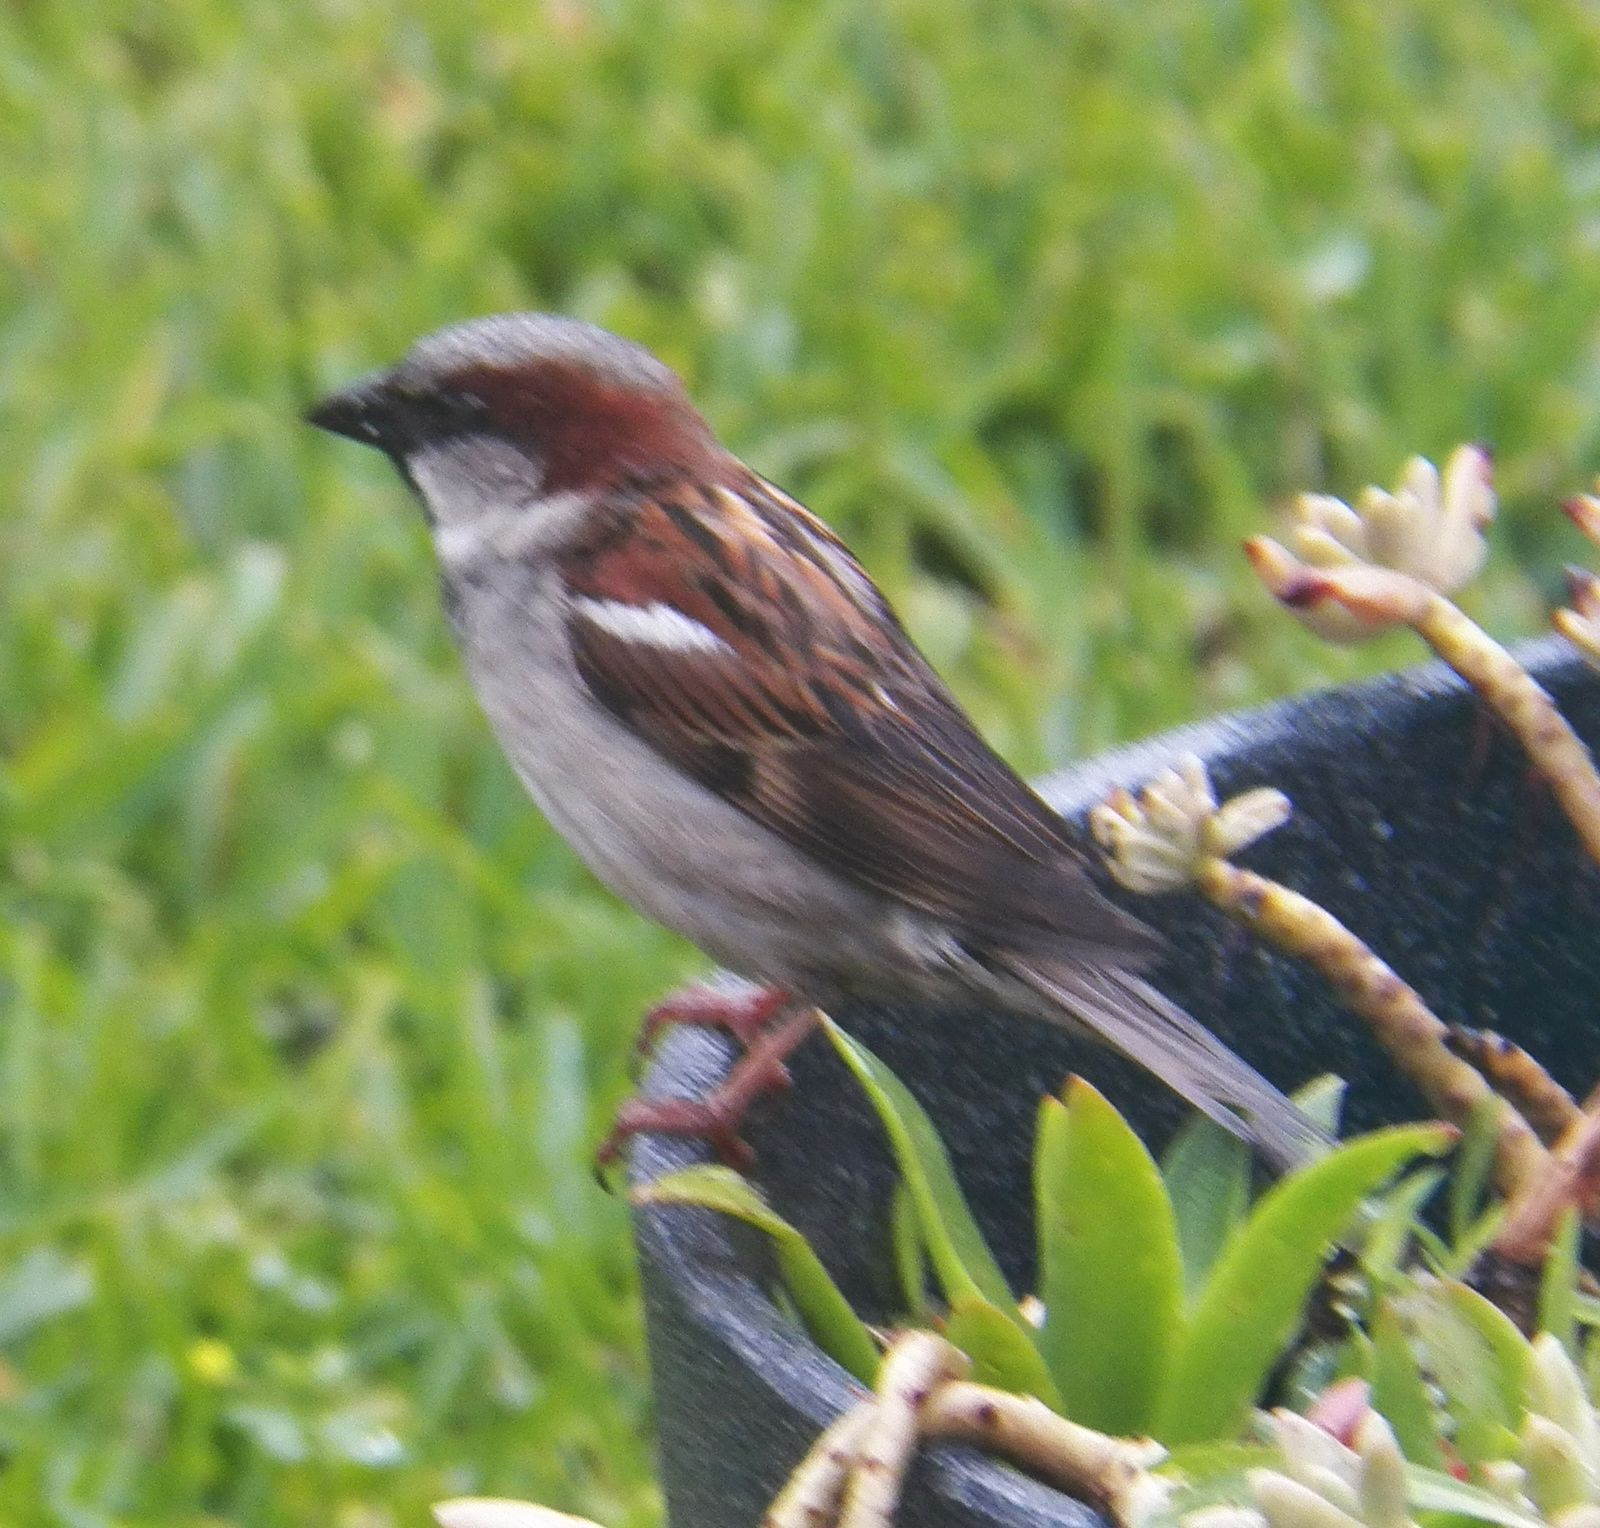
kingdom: Animalia
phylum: Chordata
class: Aves
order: Passeriformes
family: Passeridae
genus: Passer
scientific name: Passer domesticus
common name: House sparrow
